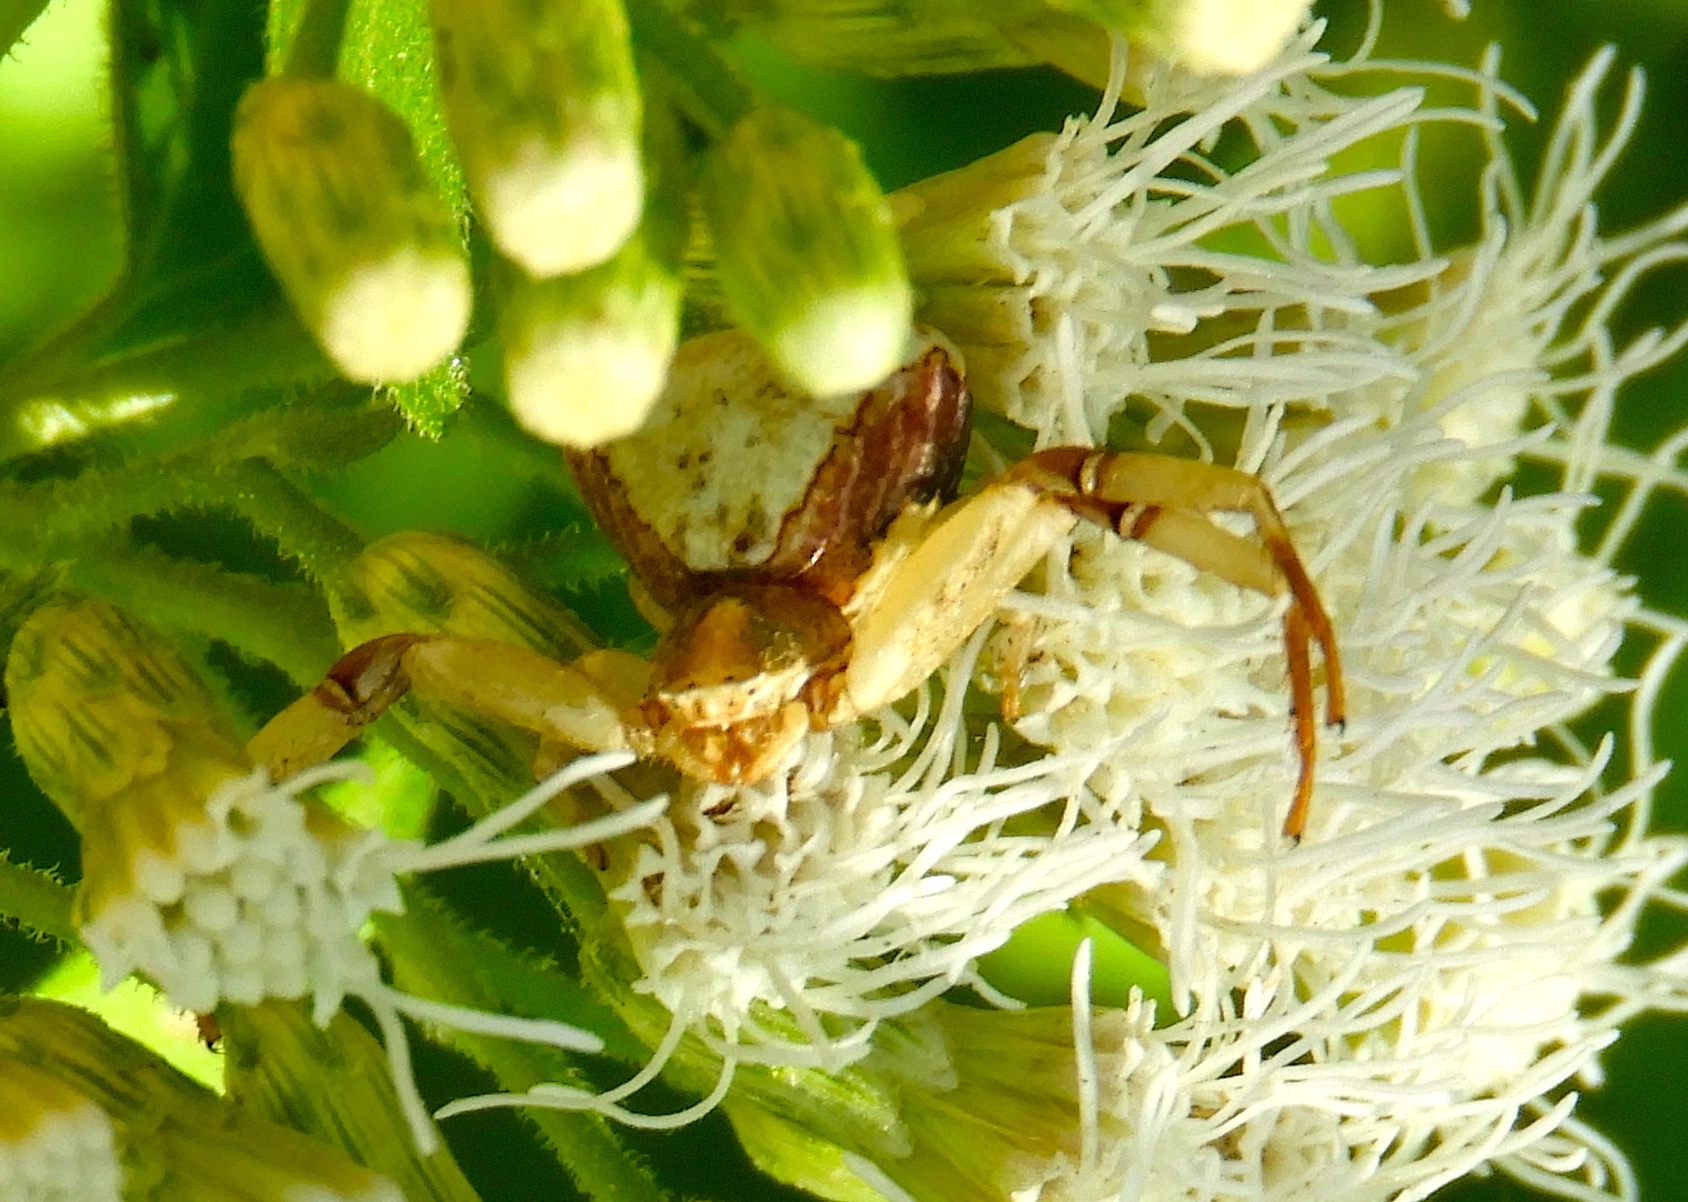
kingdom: Animalia
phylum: Arthropoda
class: Arachnida
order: Araneae
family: Thomisidae
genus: Misumenoides
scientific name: Misumenoides
